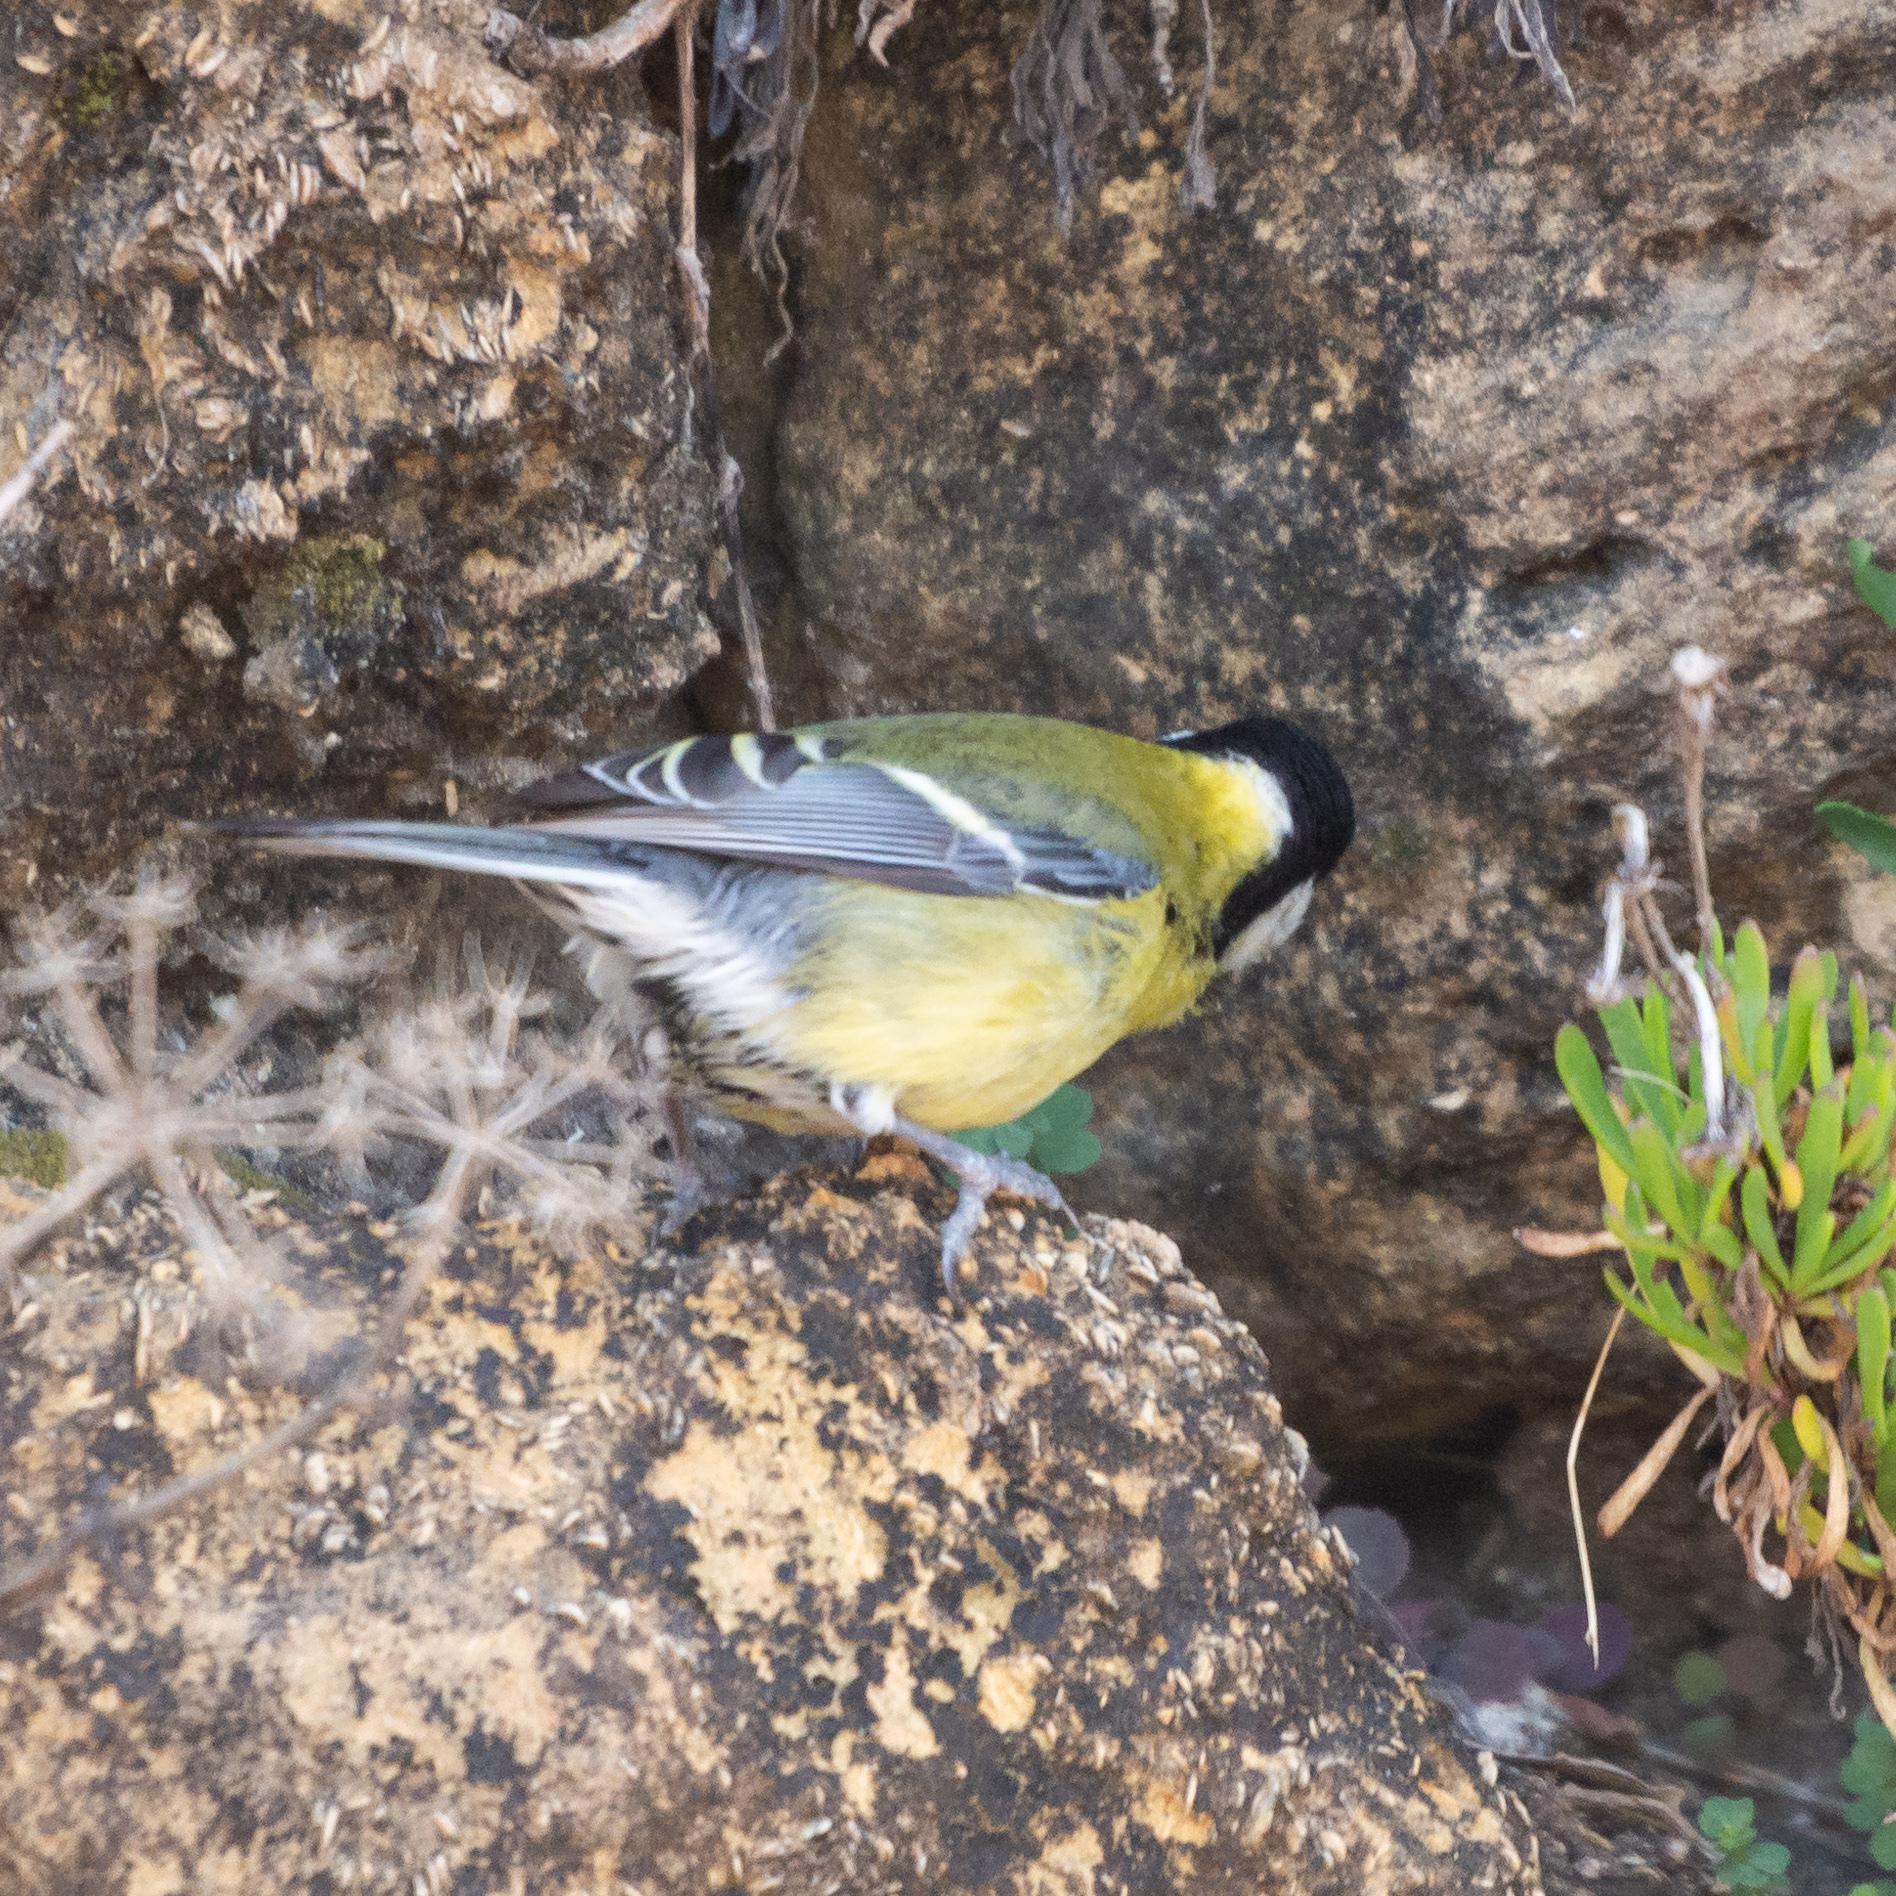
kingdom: Animalia
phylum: Chordata
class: Aves
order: Passeriformes
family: Paridae
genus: Parus
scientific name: Parus major
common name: Great tit
